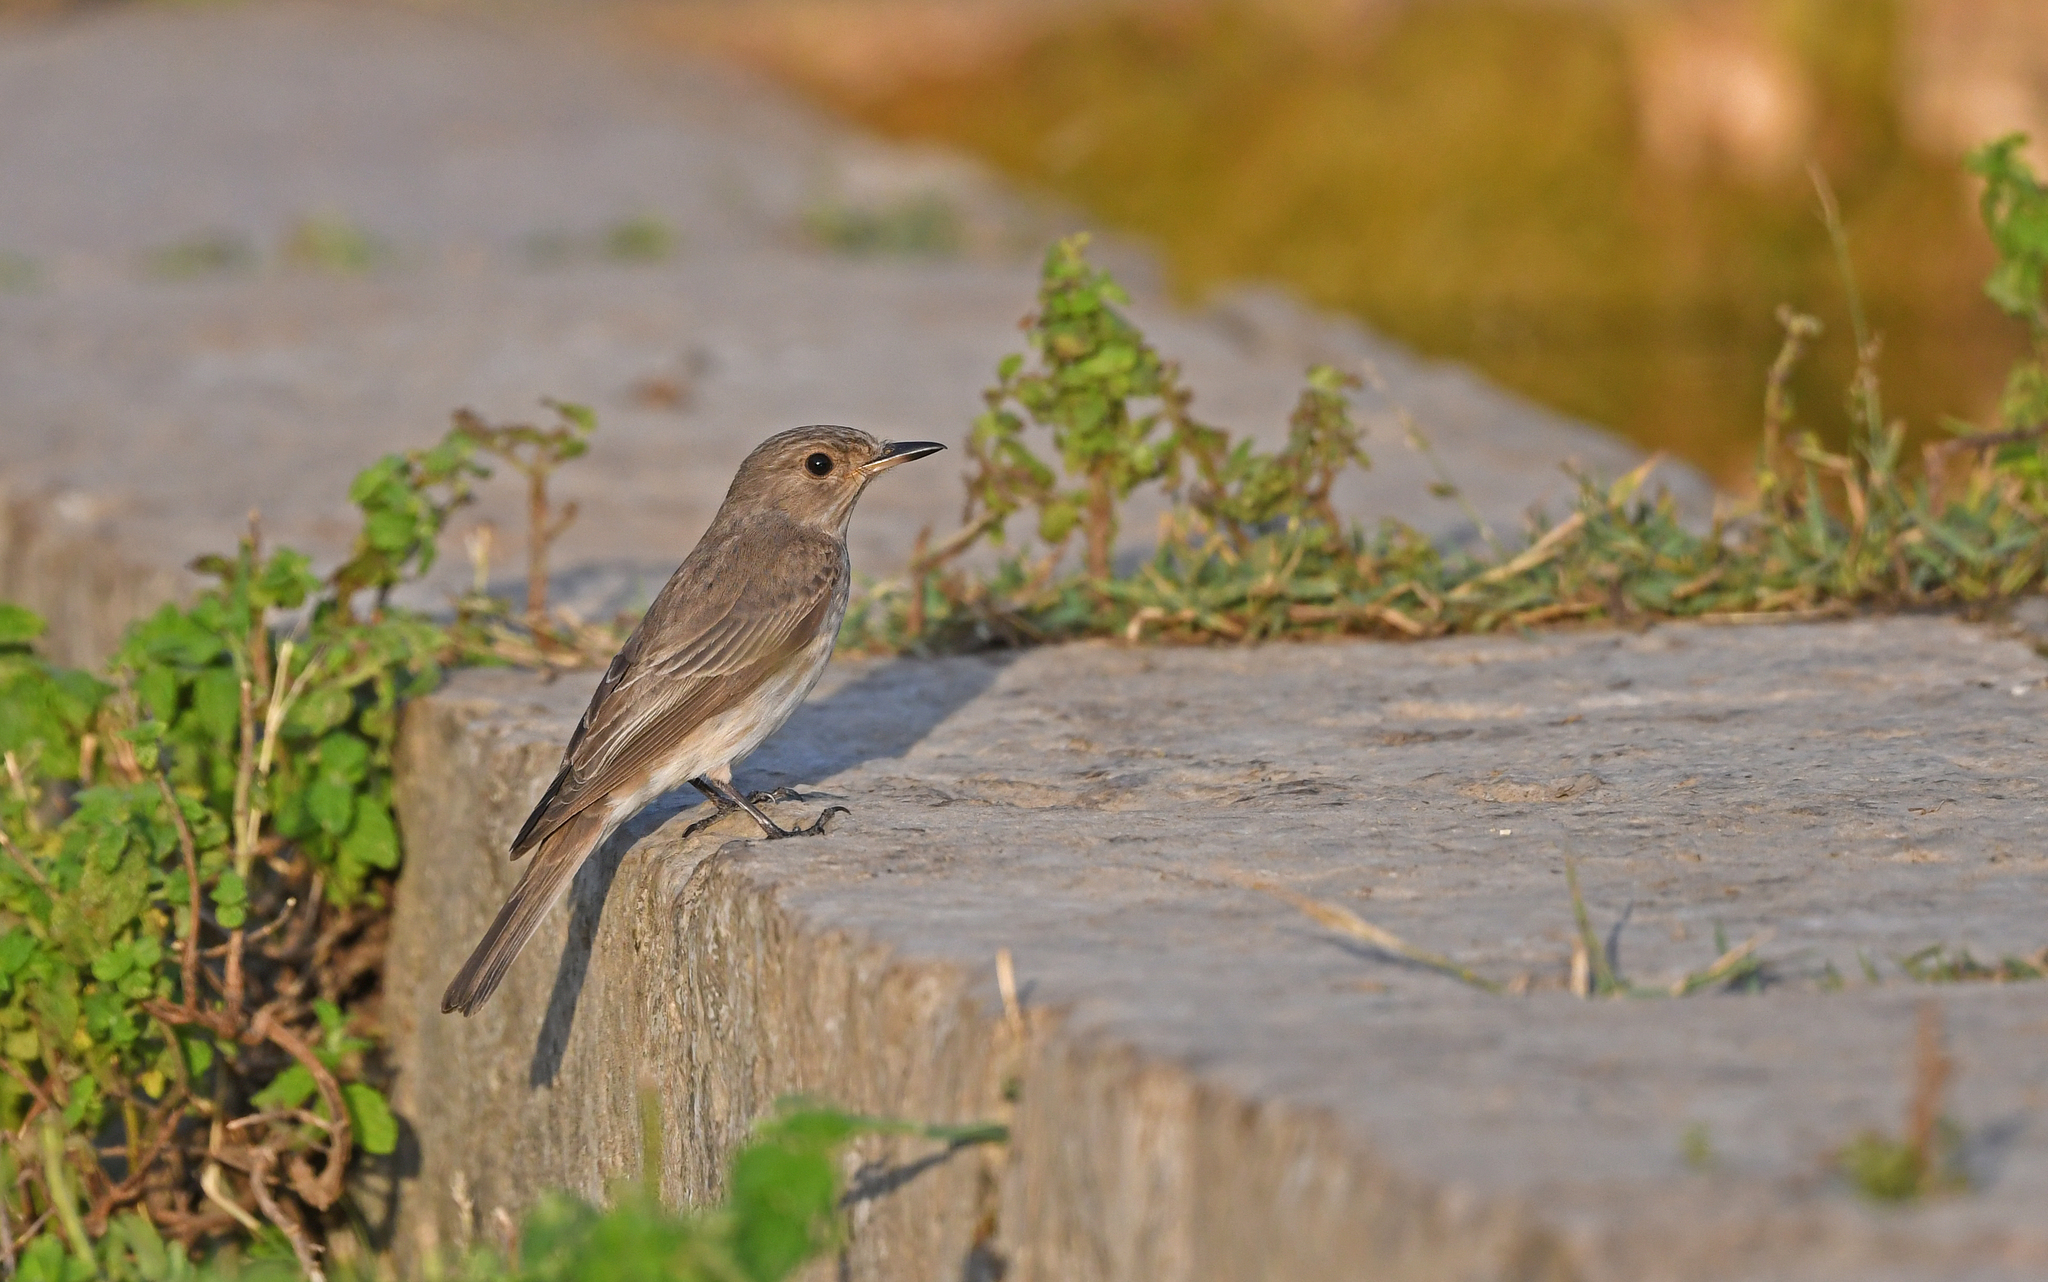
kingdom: Animalia
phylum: Chordata
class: Aves
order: Passeriformes
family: Muscicapidae
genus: Muscicapa
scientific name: Muscicapa striata
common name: Spotted flycatcher
